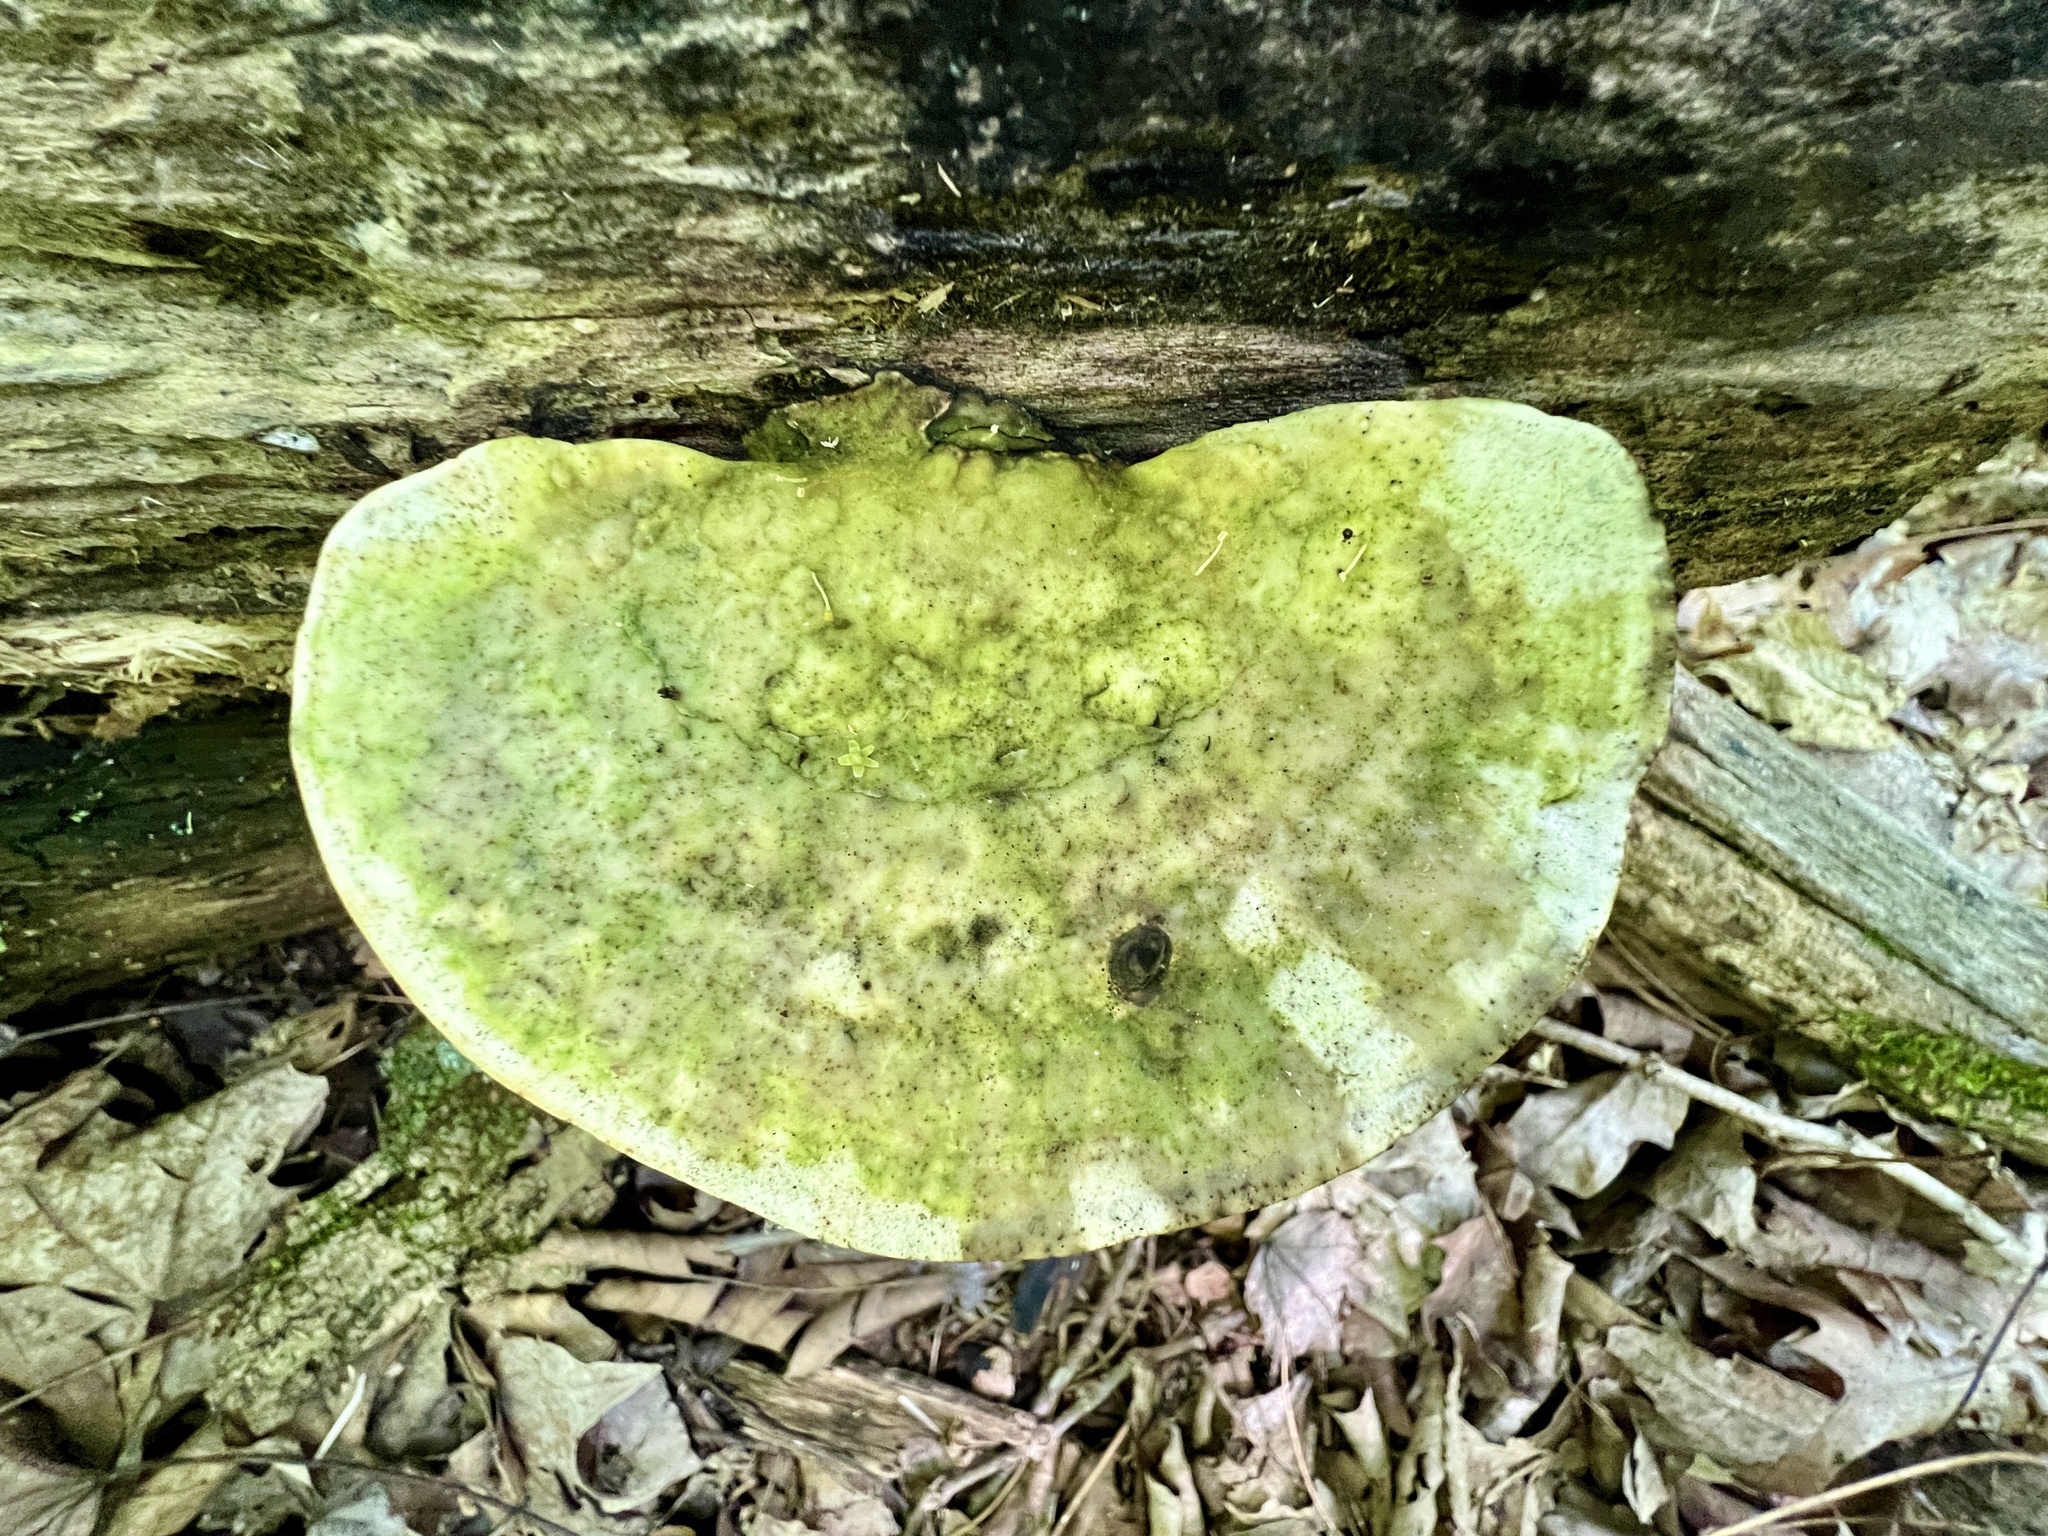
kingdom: Fungi
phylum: Basidiomycota
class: Agaricomycetes
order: Polyporales
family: Polyporaceae
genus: Trametes
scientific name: Trametes
